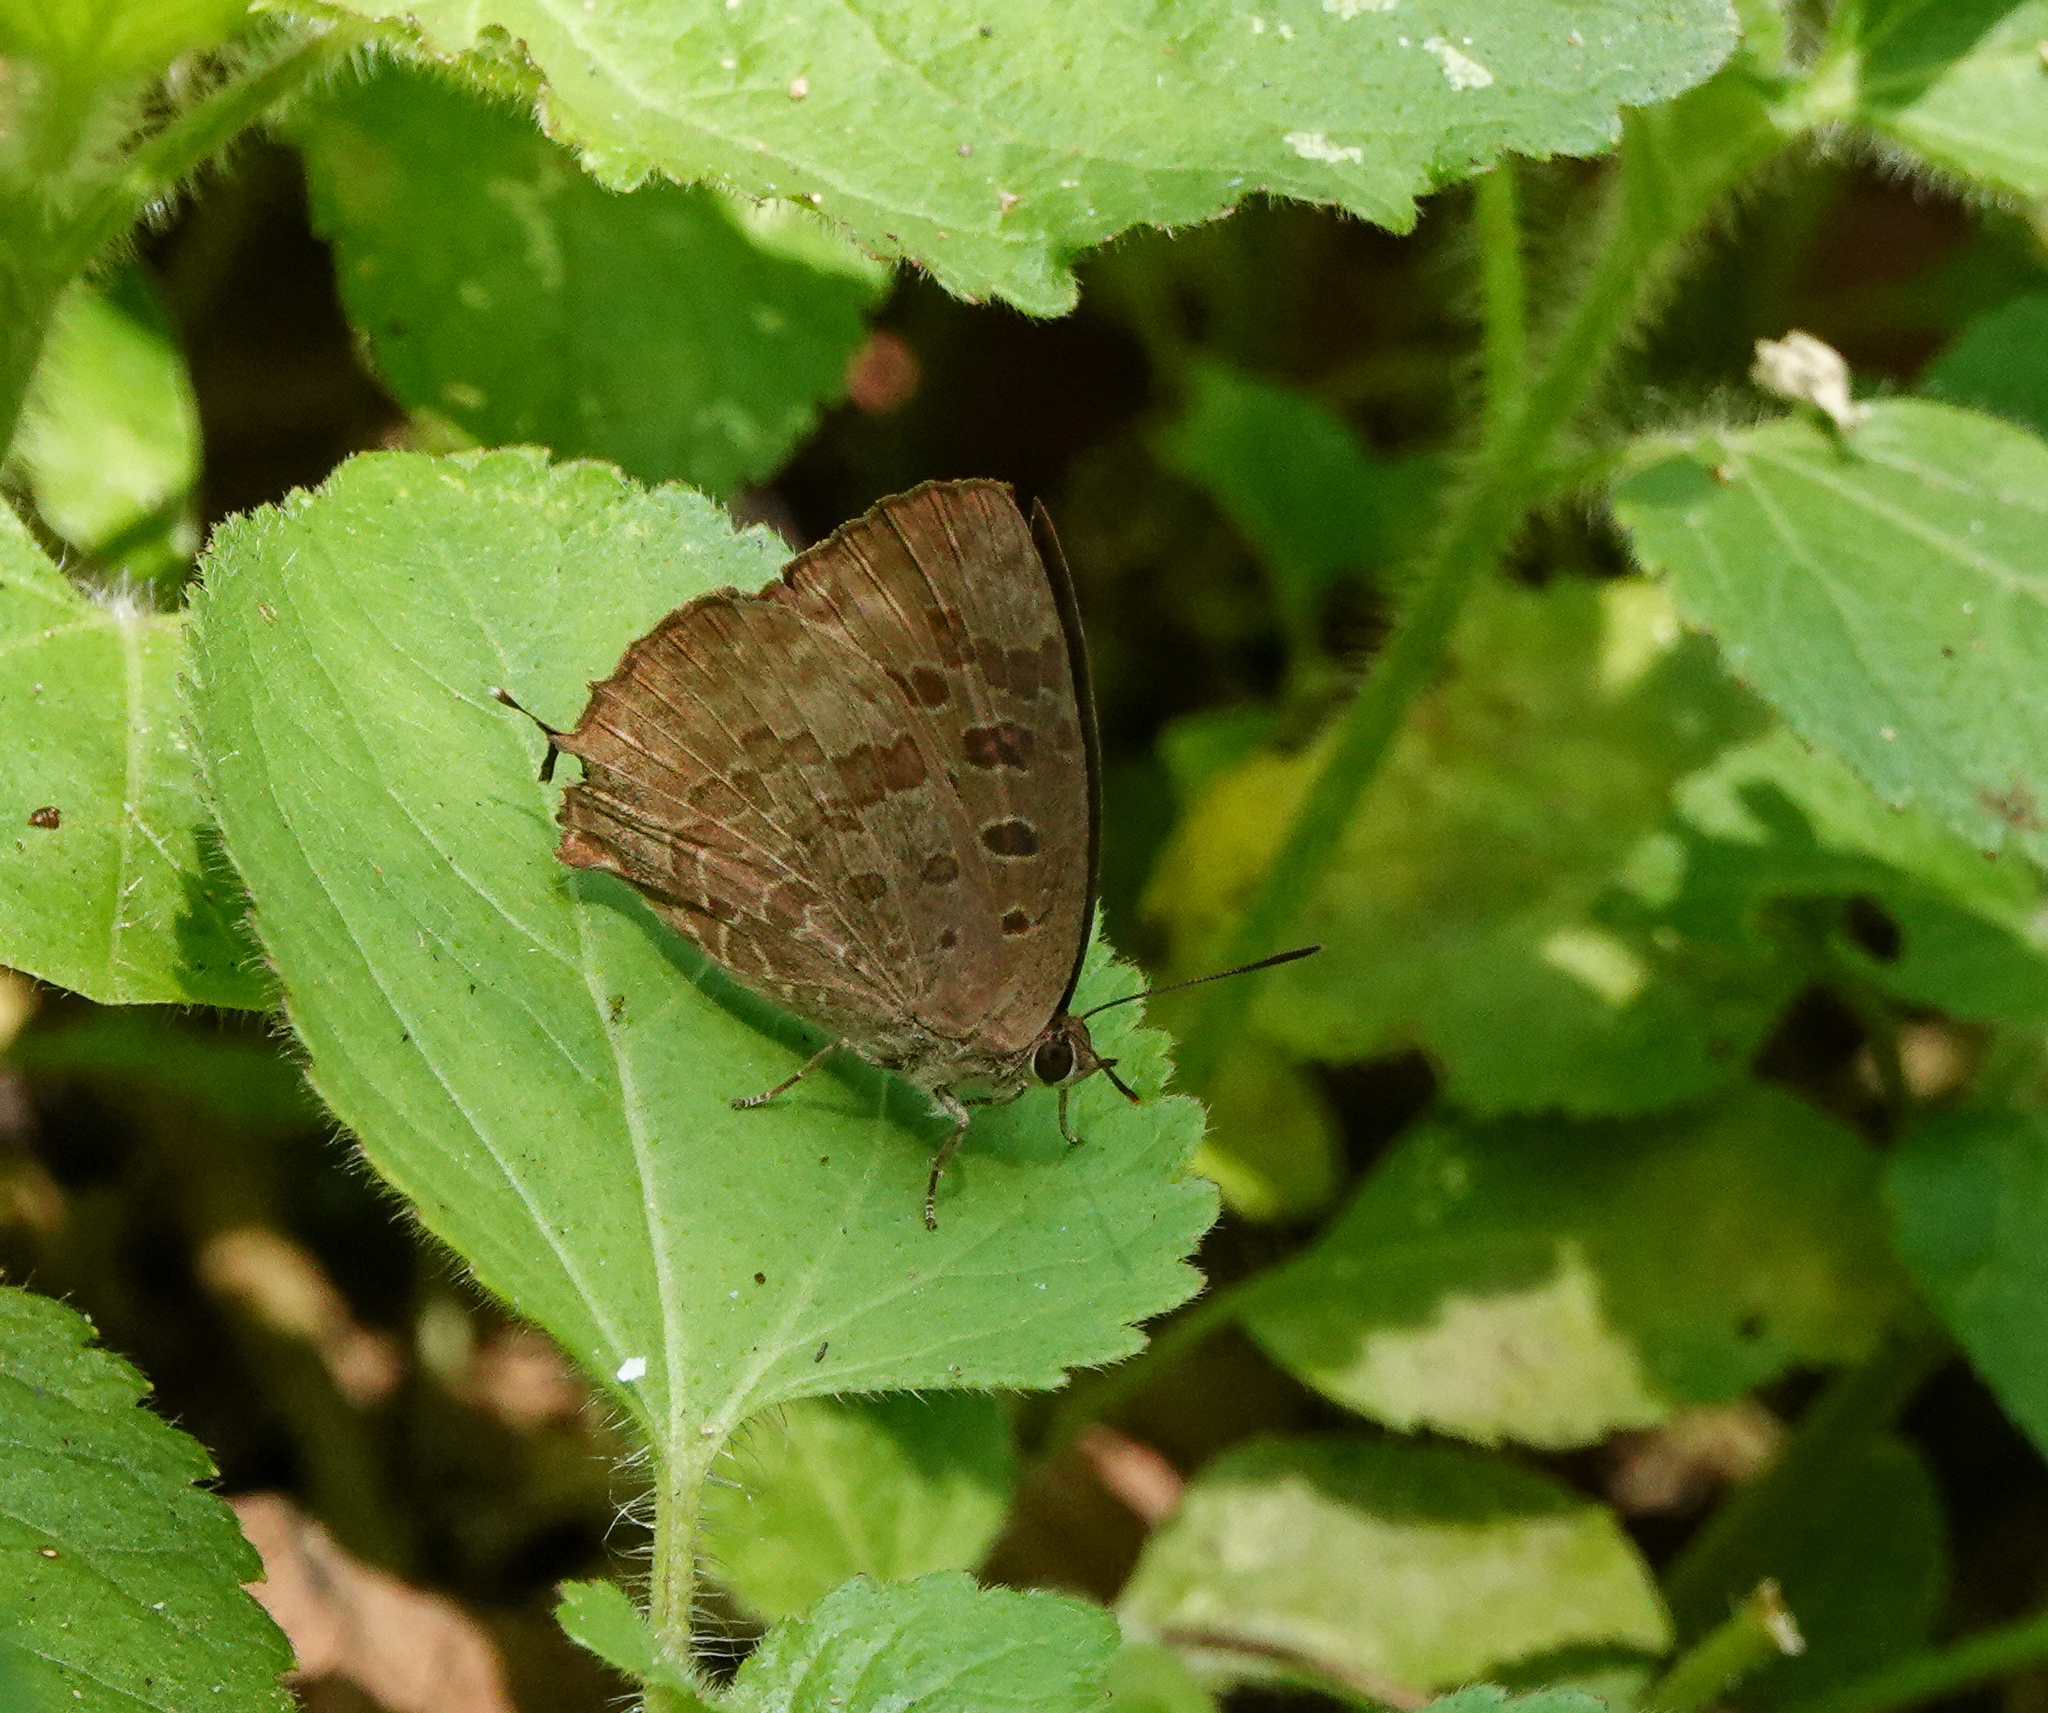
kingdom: Animalia
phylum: Arthropoda
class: Insecta
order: Lepidoptera
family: Lycaenidae
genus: Arhopala
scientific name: Arhopala bazalus
